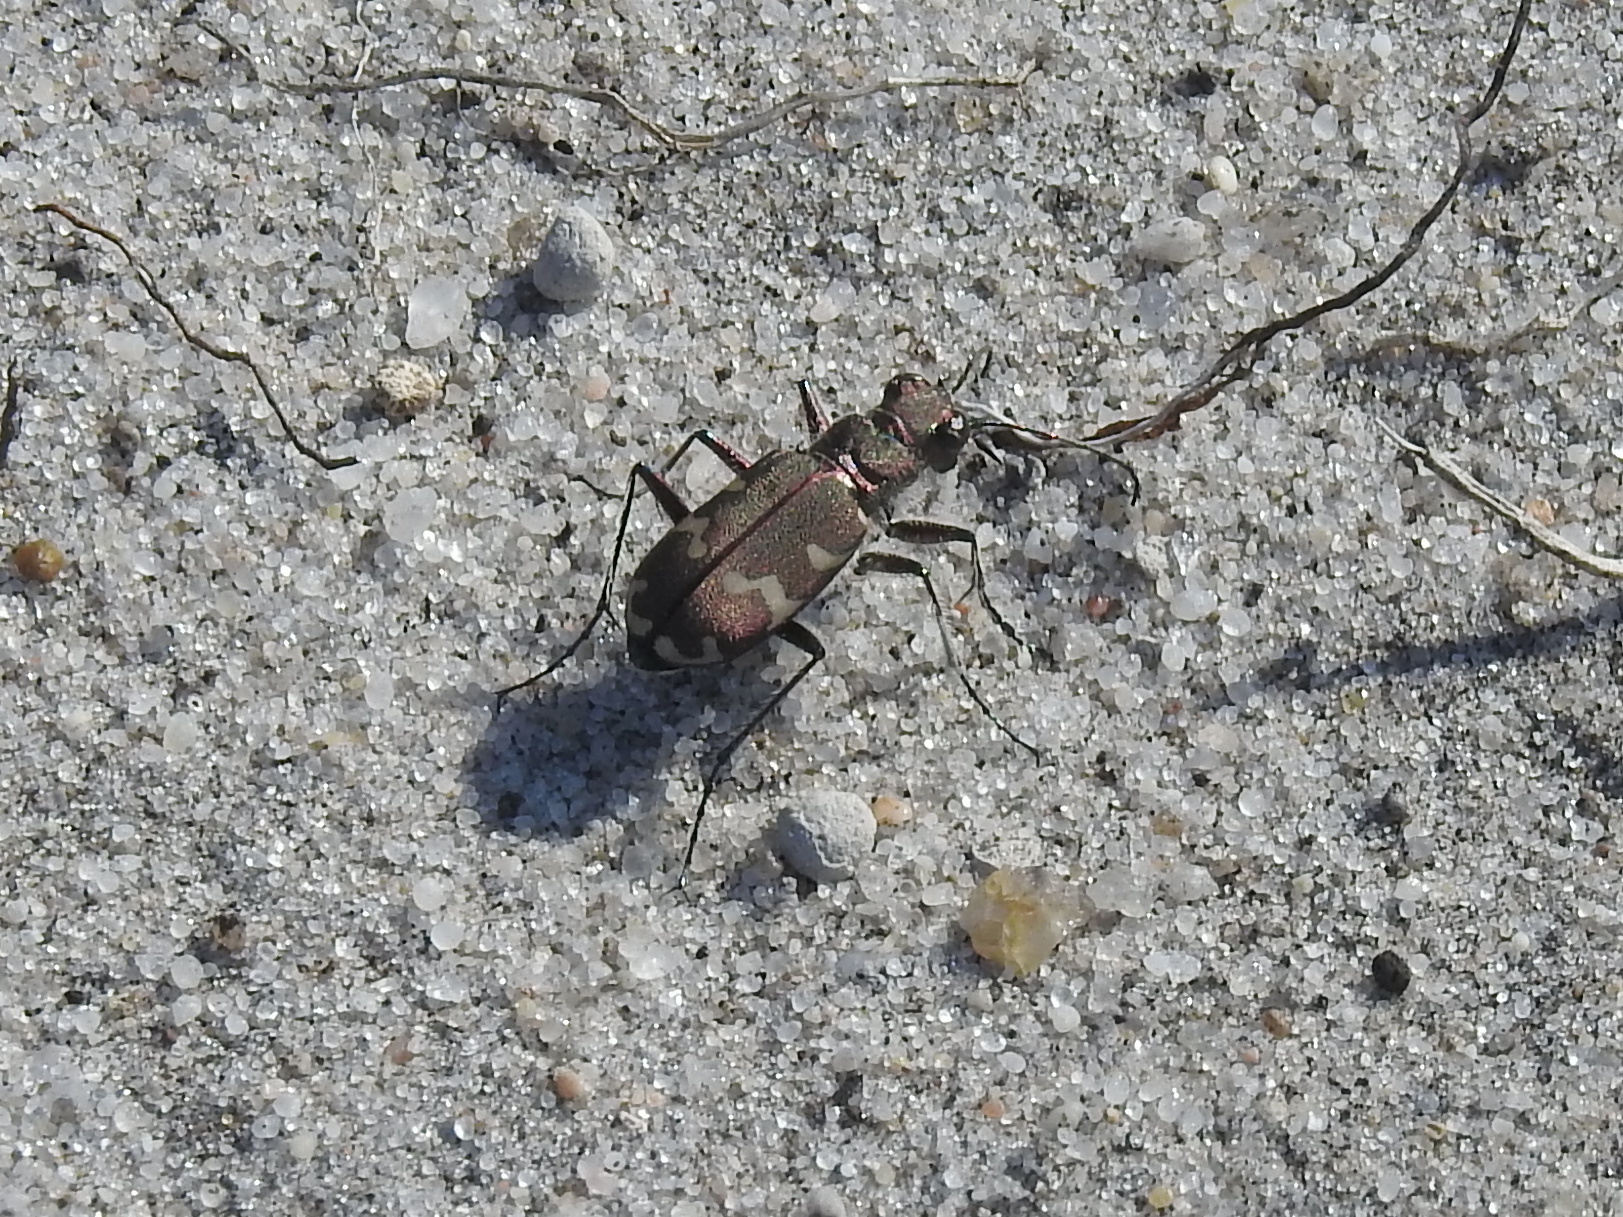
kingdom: Animalia
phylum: Arthropoda
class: Insecta
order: Coleoptera
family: Carabidae
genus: Cicindela
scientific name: Cicindela hybrida
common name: Northern dune tiger beetle
